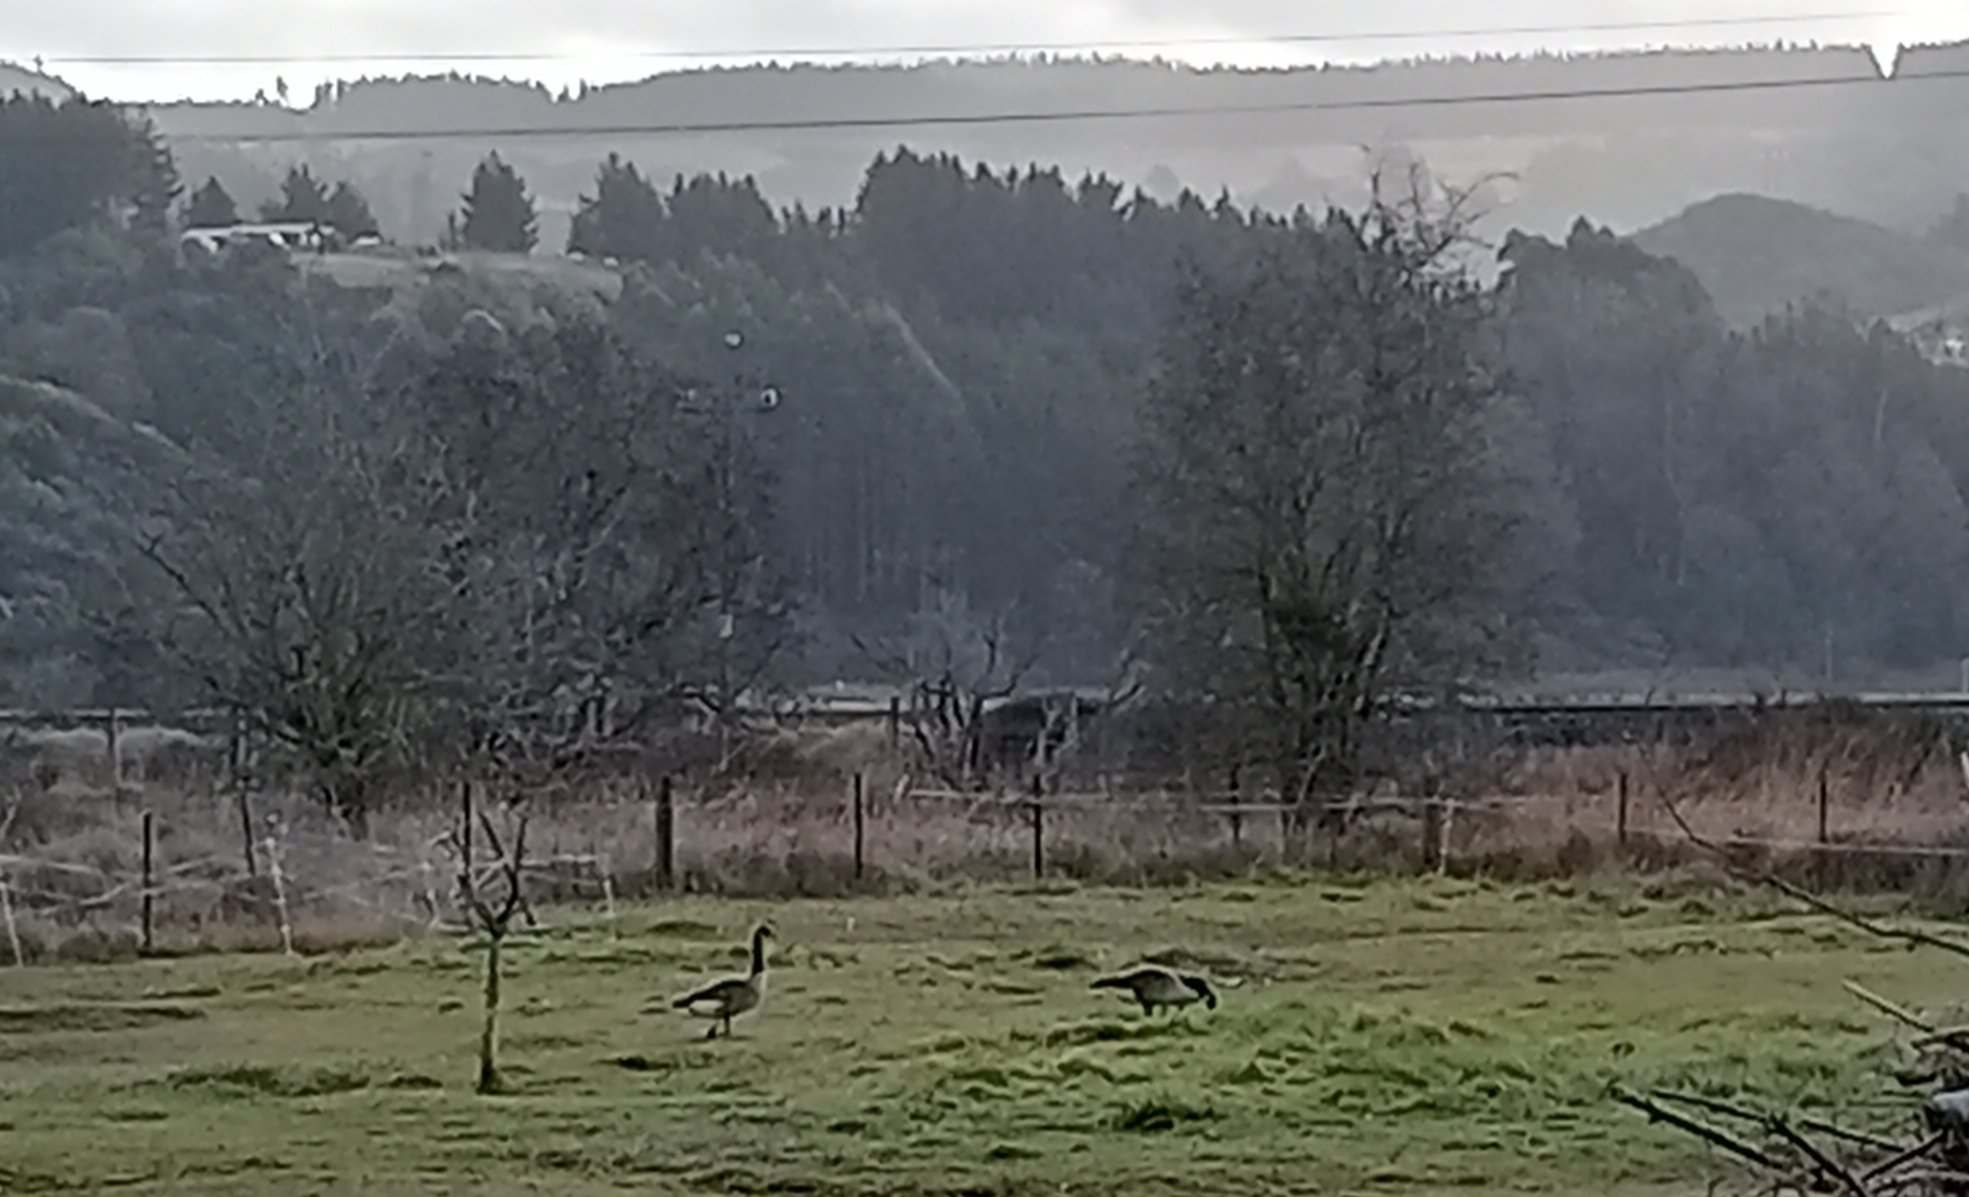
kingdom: Animalia
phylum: Chordata
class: Aves
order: Anseriformes
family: Anatidae
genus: Branta
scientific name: Branta canadensis
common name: Canada goose
